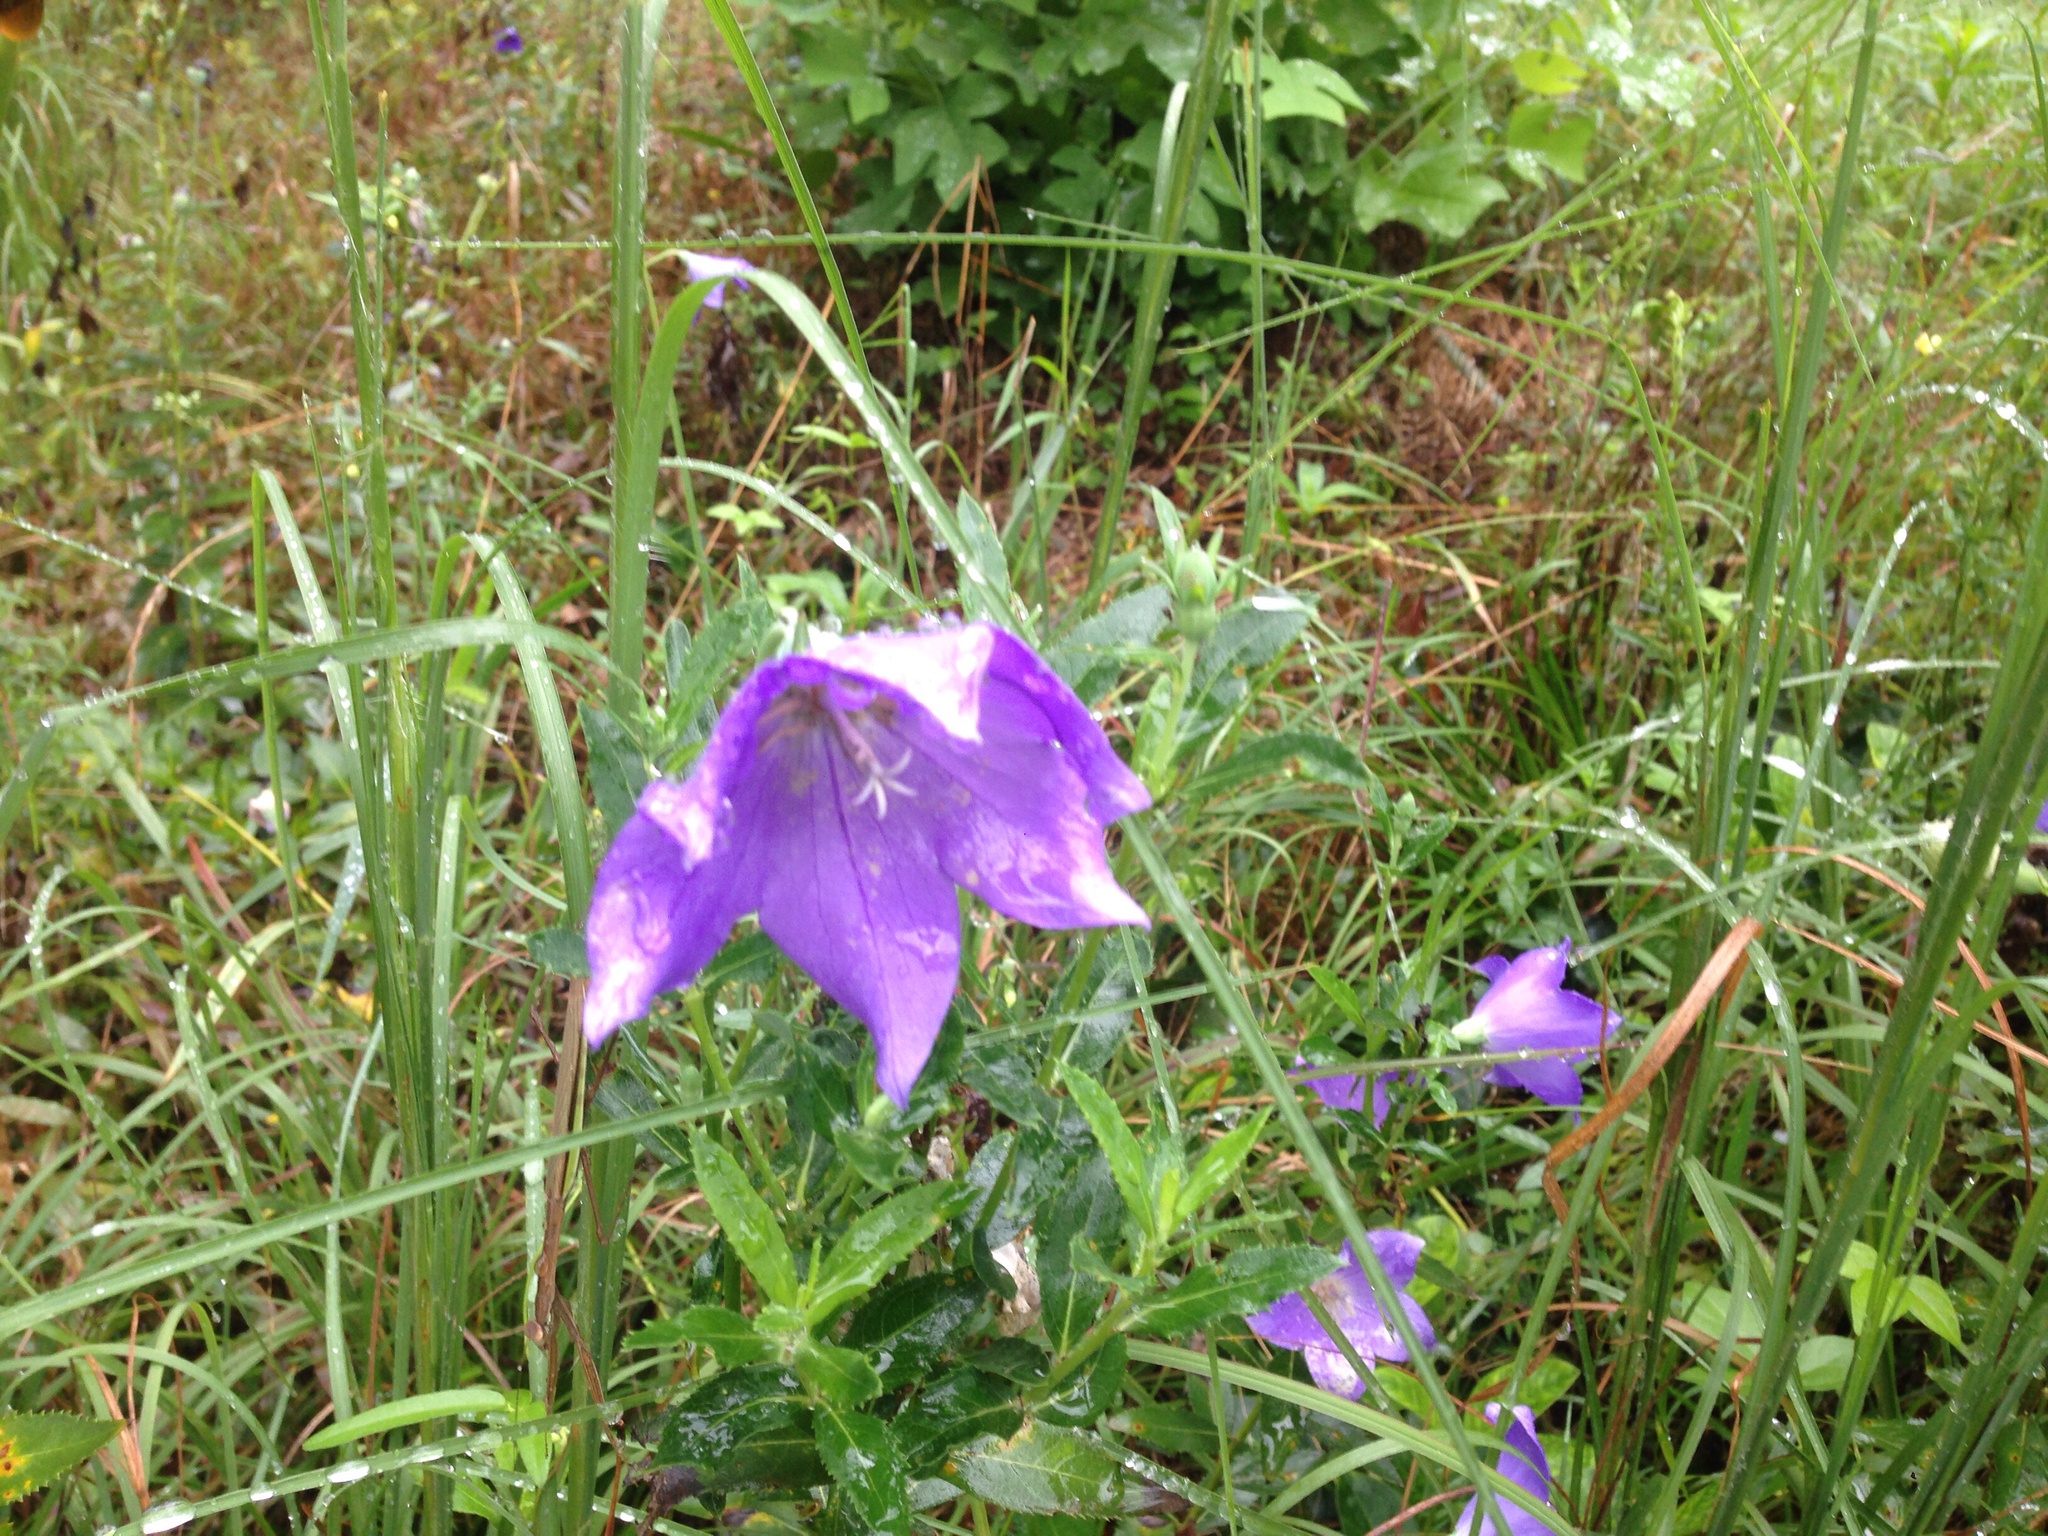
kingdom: Plantae
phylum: Tracheophyta
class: Magnoliopsida
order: Asterales
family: Campanulaceae
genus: Platycodon
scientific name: Platycodon grandiflorus
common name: Balloon-flower
